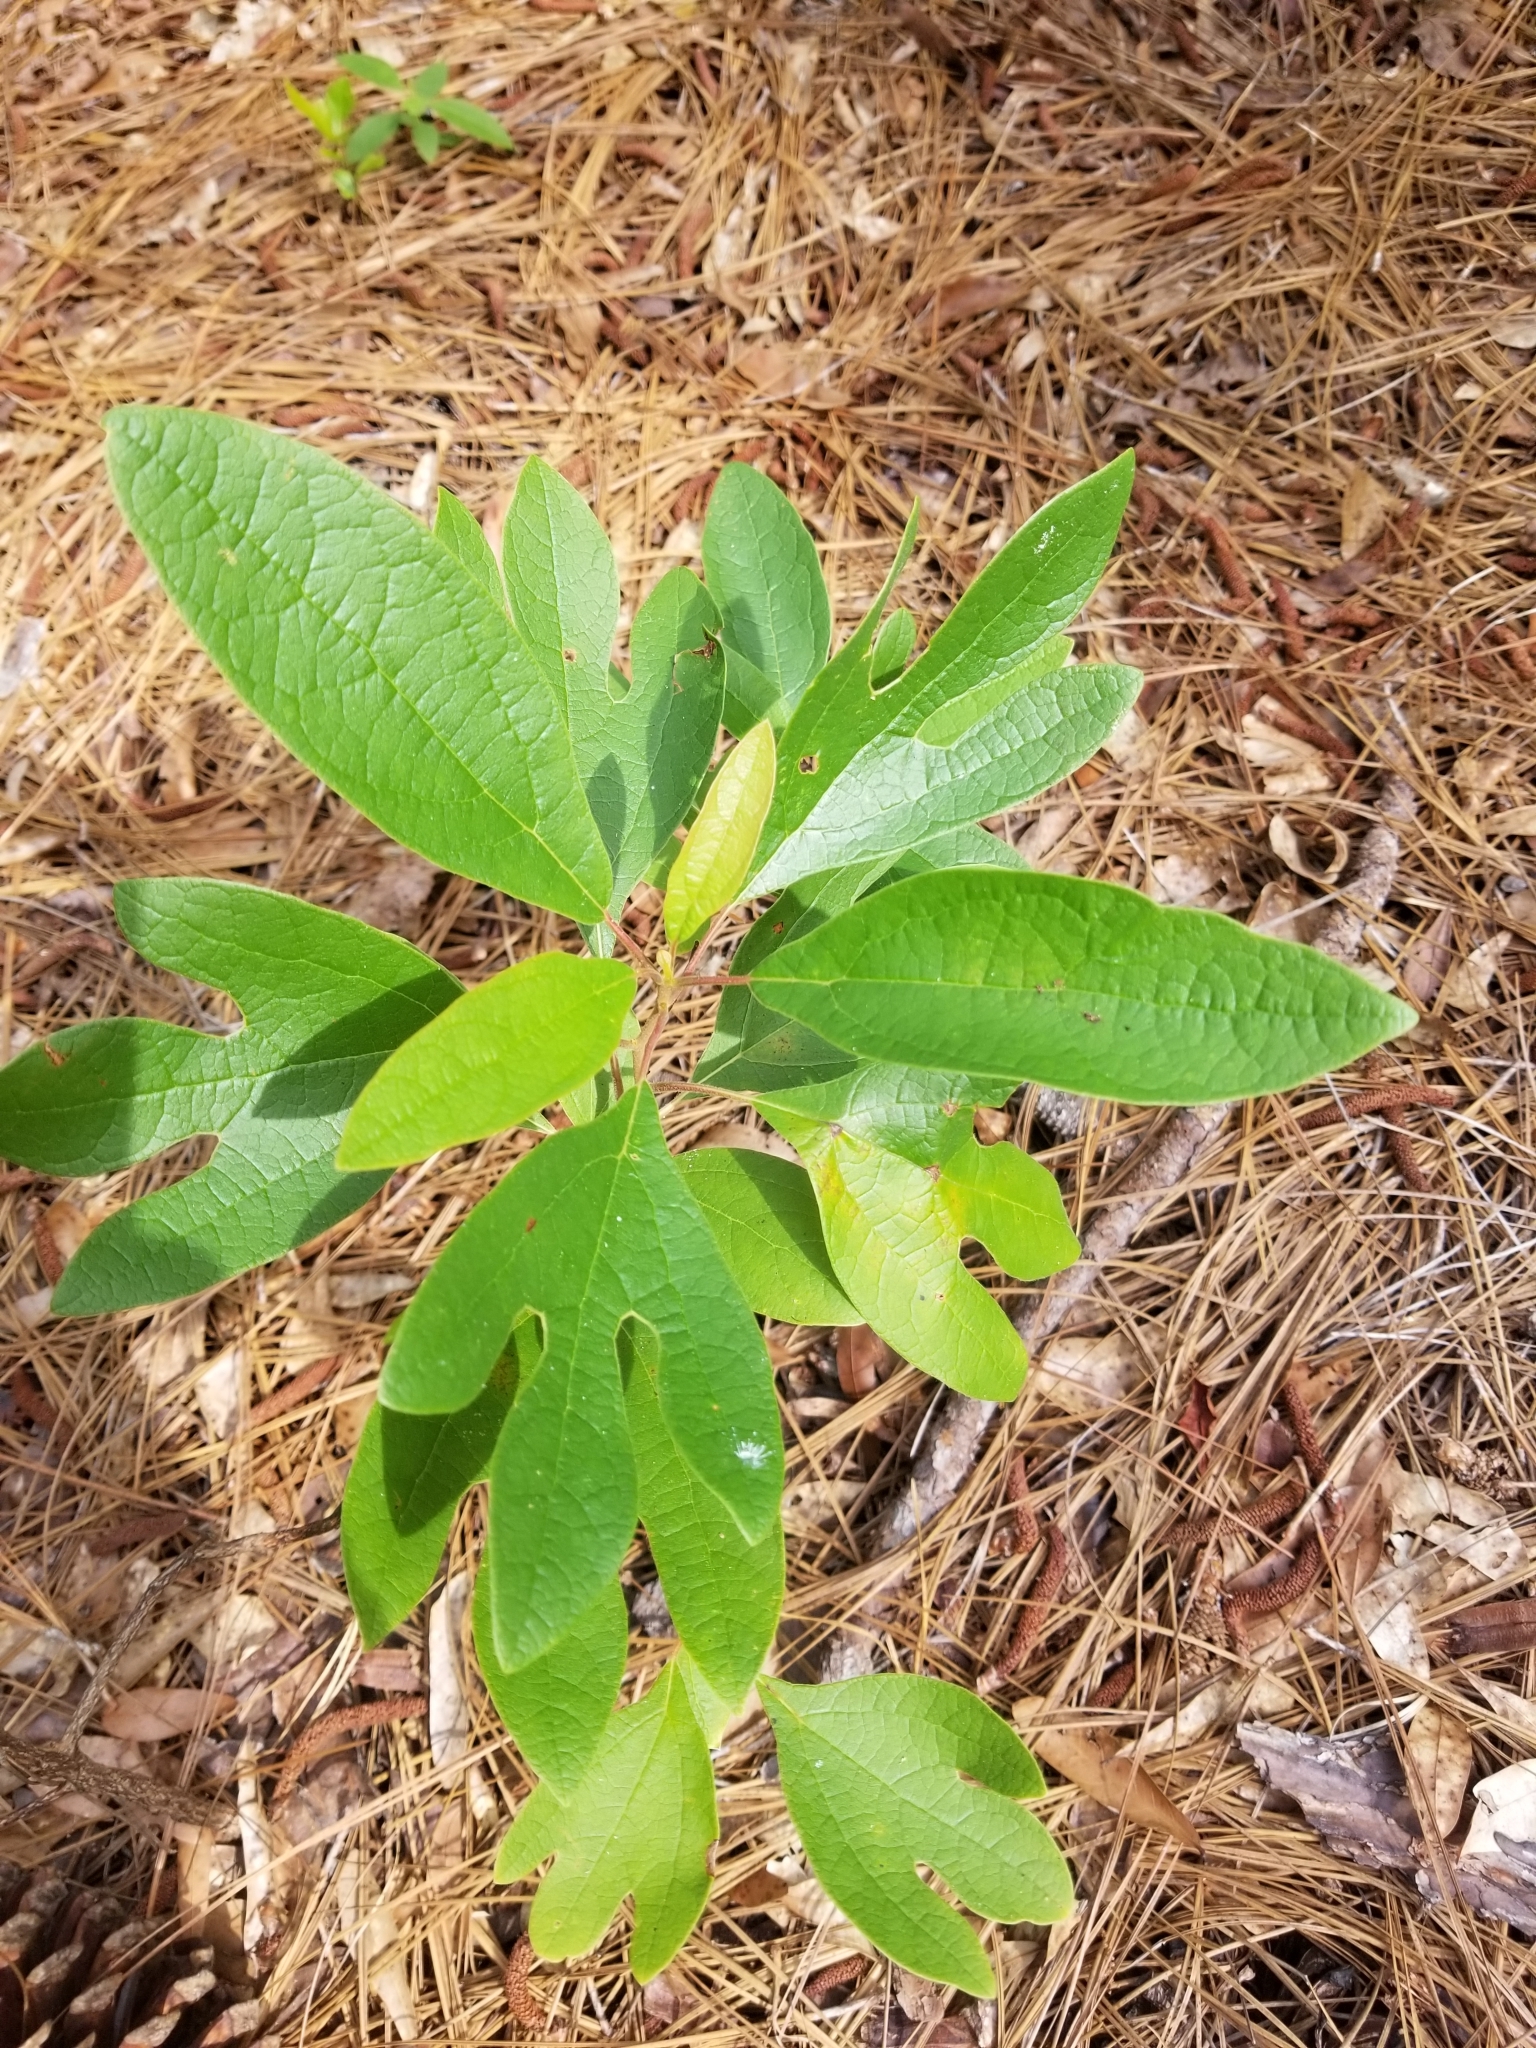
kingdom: Plantae
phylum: Tracheophyta
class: Magnoliopsida
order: Laurales
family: Lauraceae
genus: Sassafras
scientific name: Sassafras albidum
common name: Sassafras
